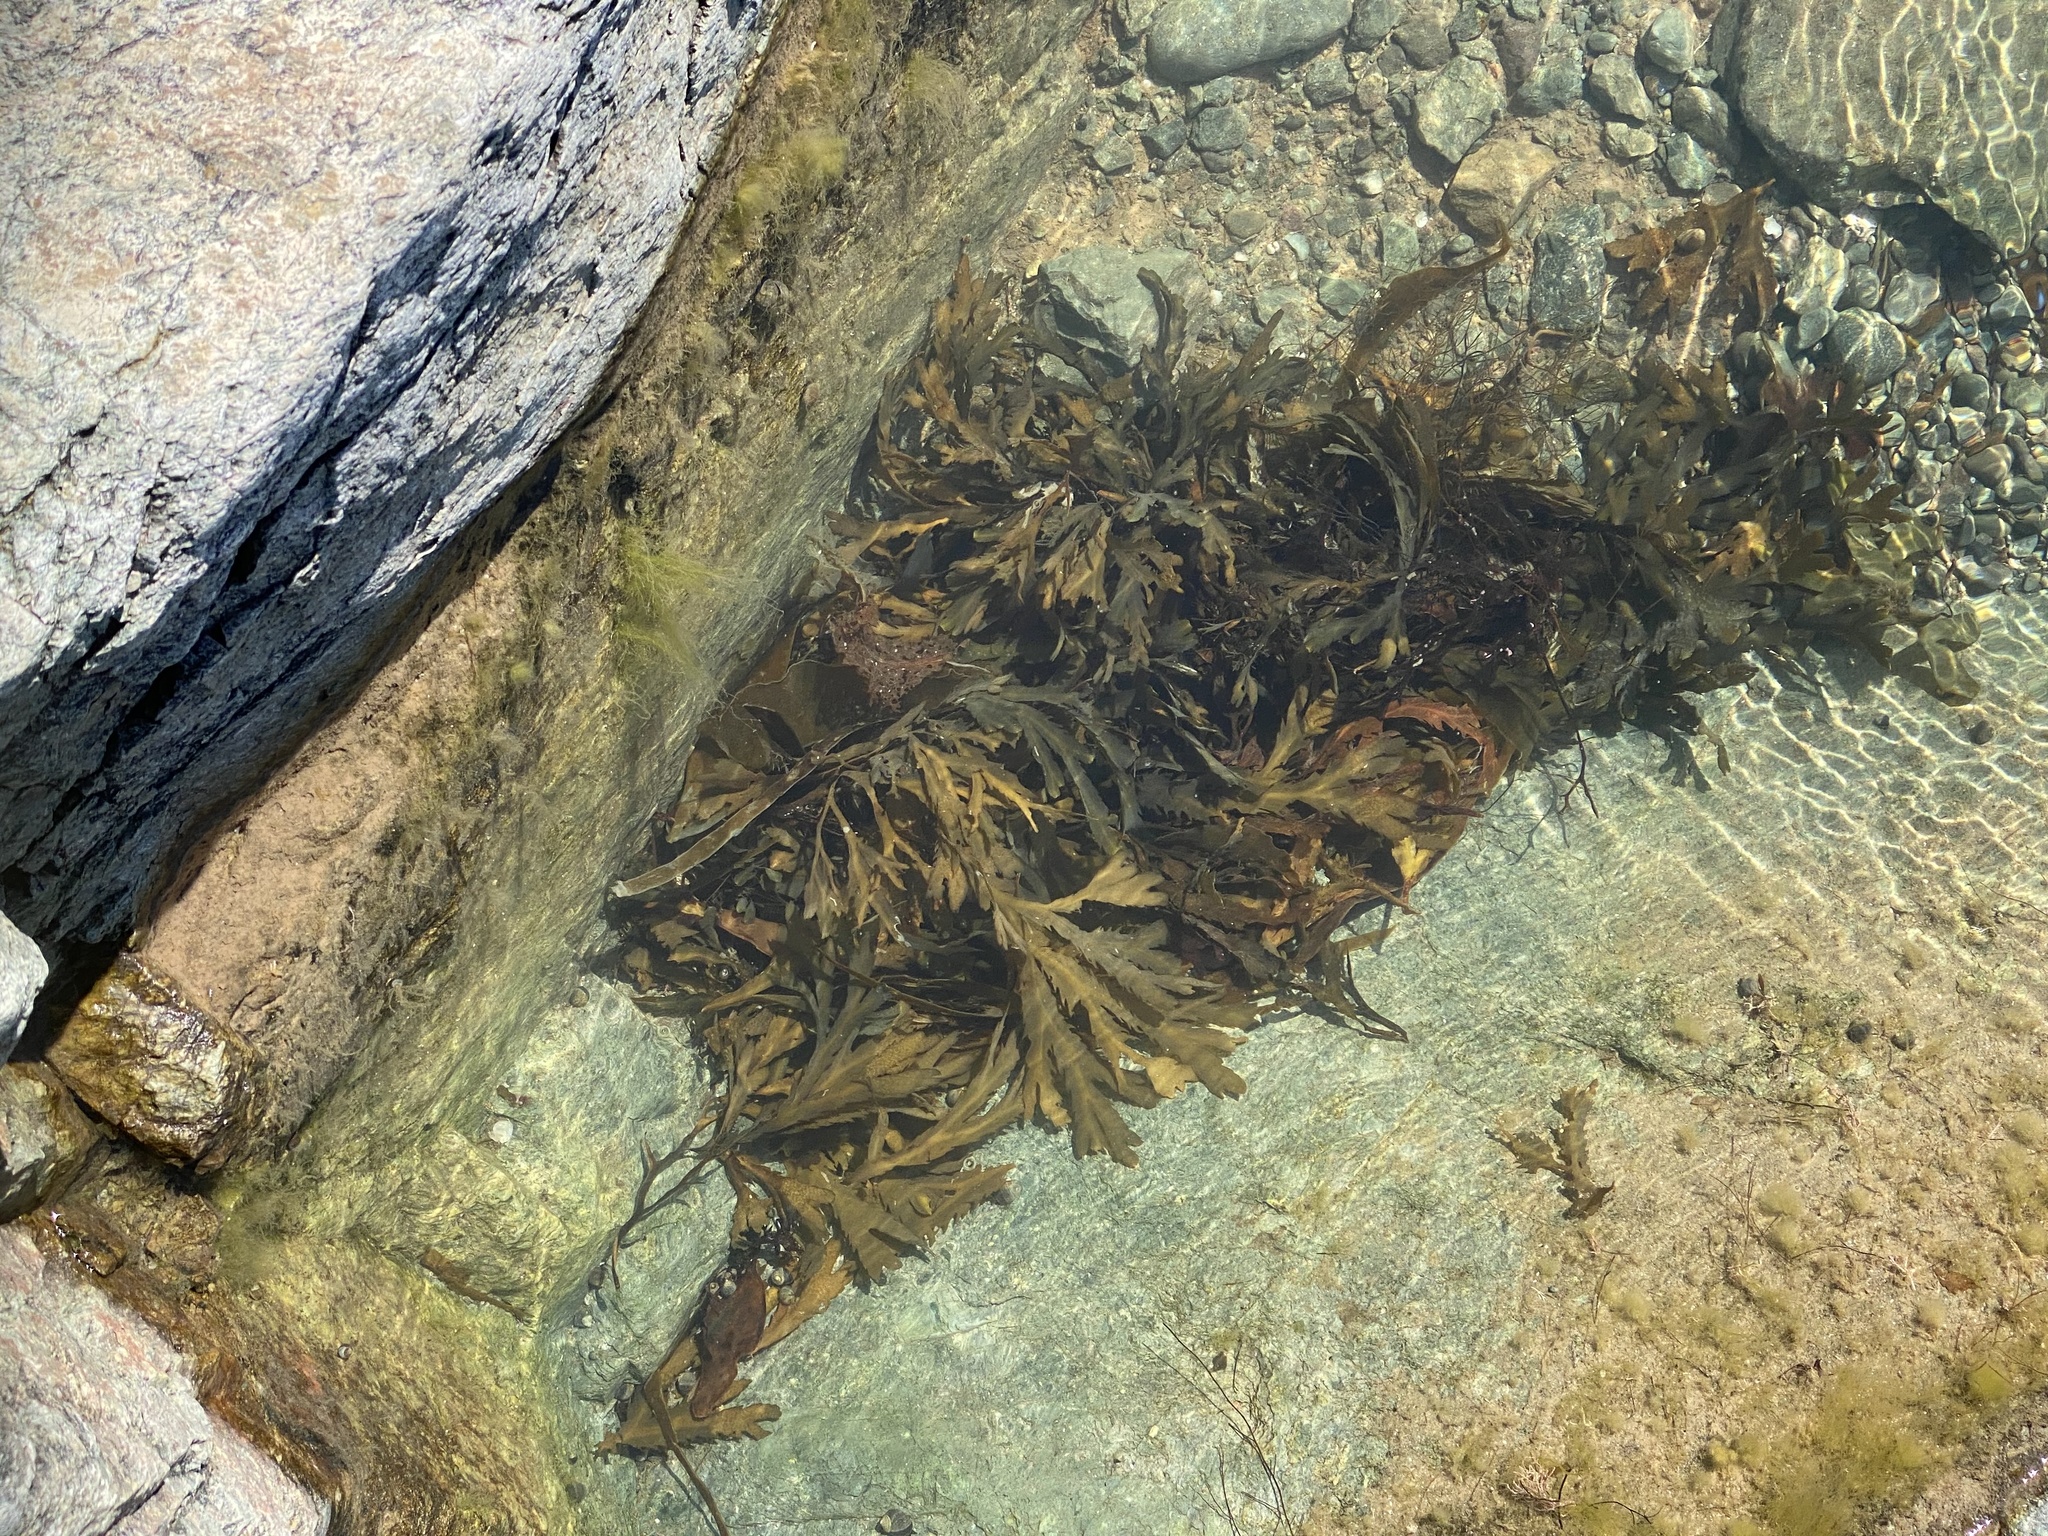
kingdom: Chromista
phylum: Ochrophyta
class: Phaeophyceae
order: Fucales
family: Fucaceae
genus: Fucus
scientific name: Fucus serratus
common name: Toothed wrack
